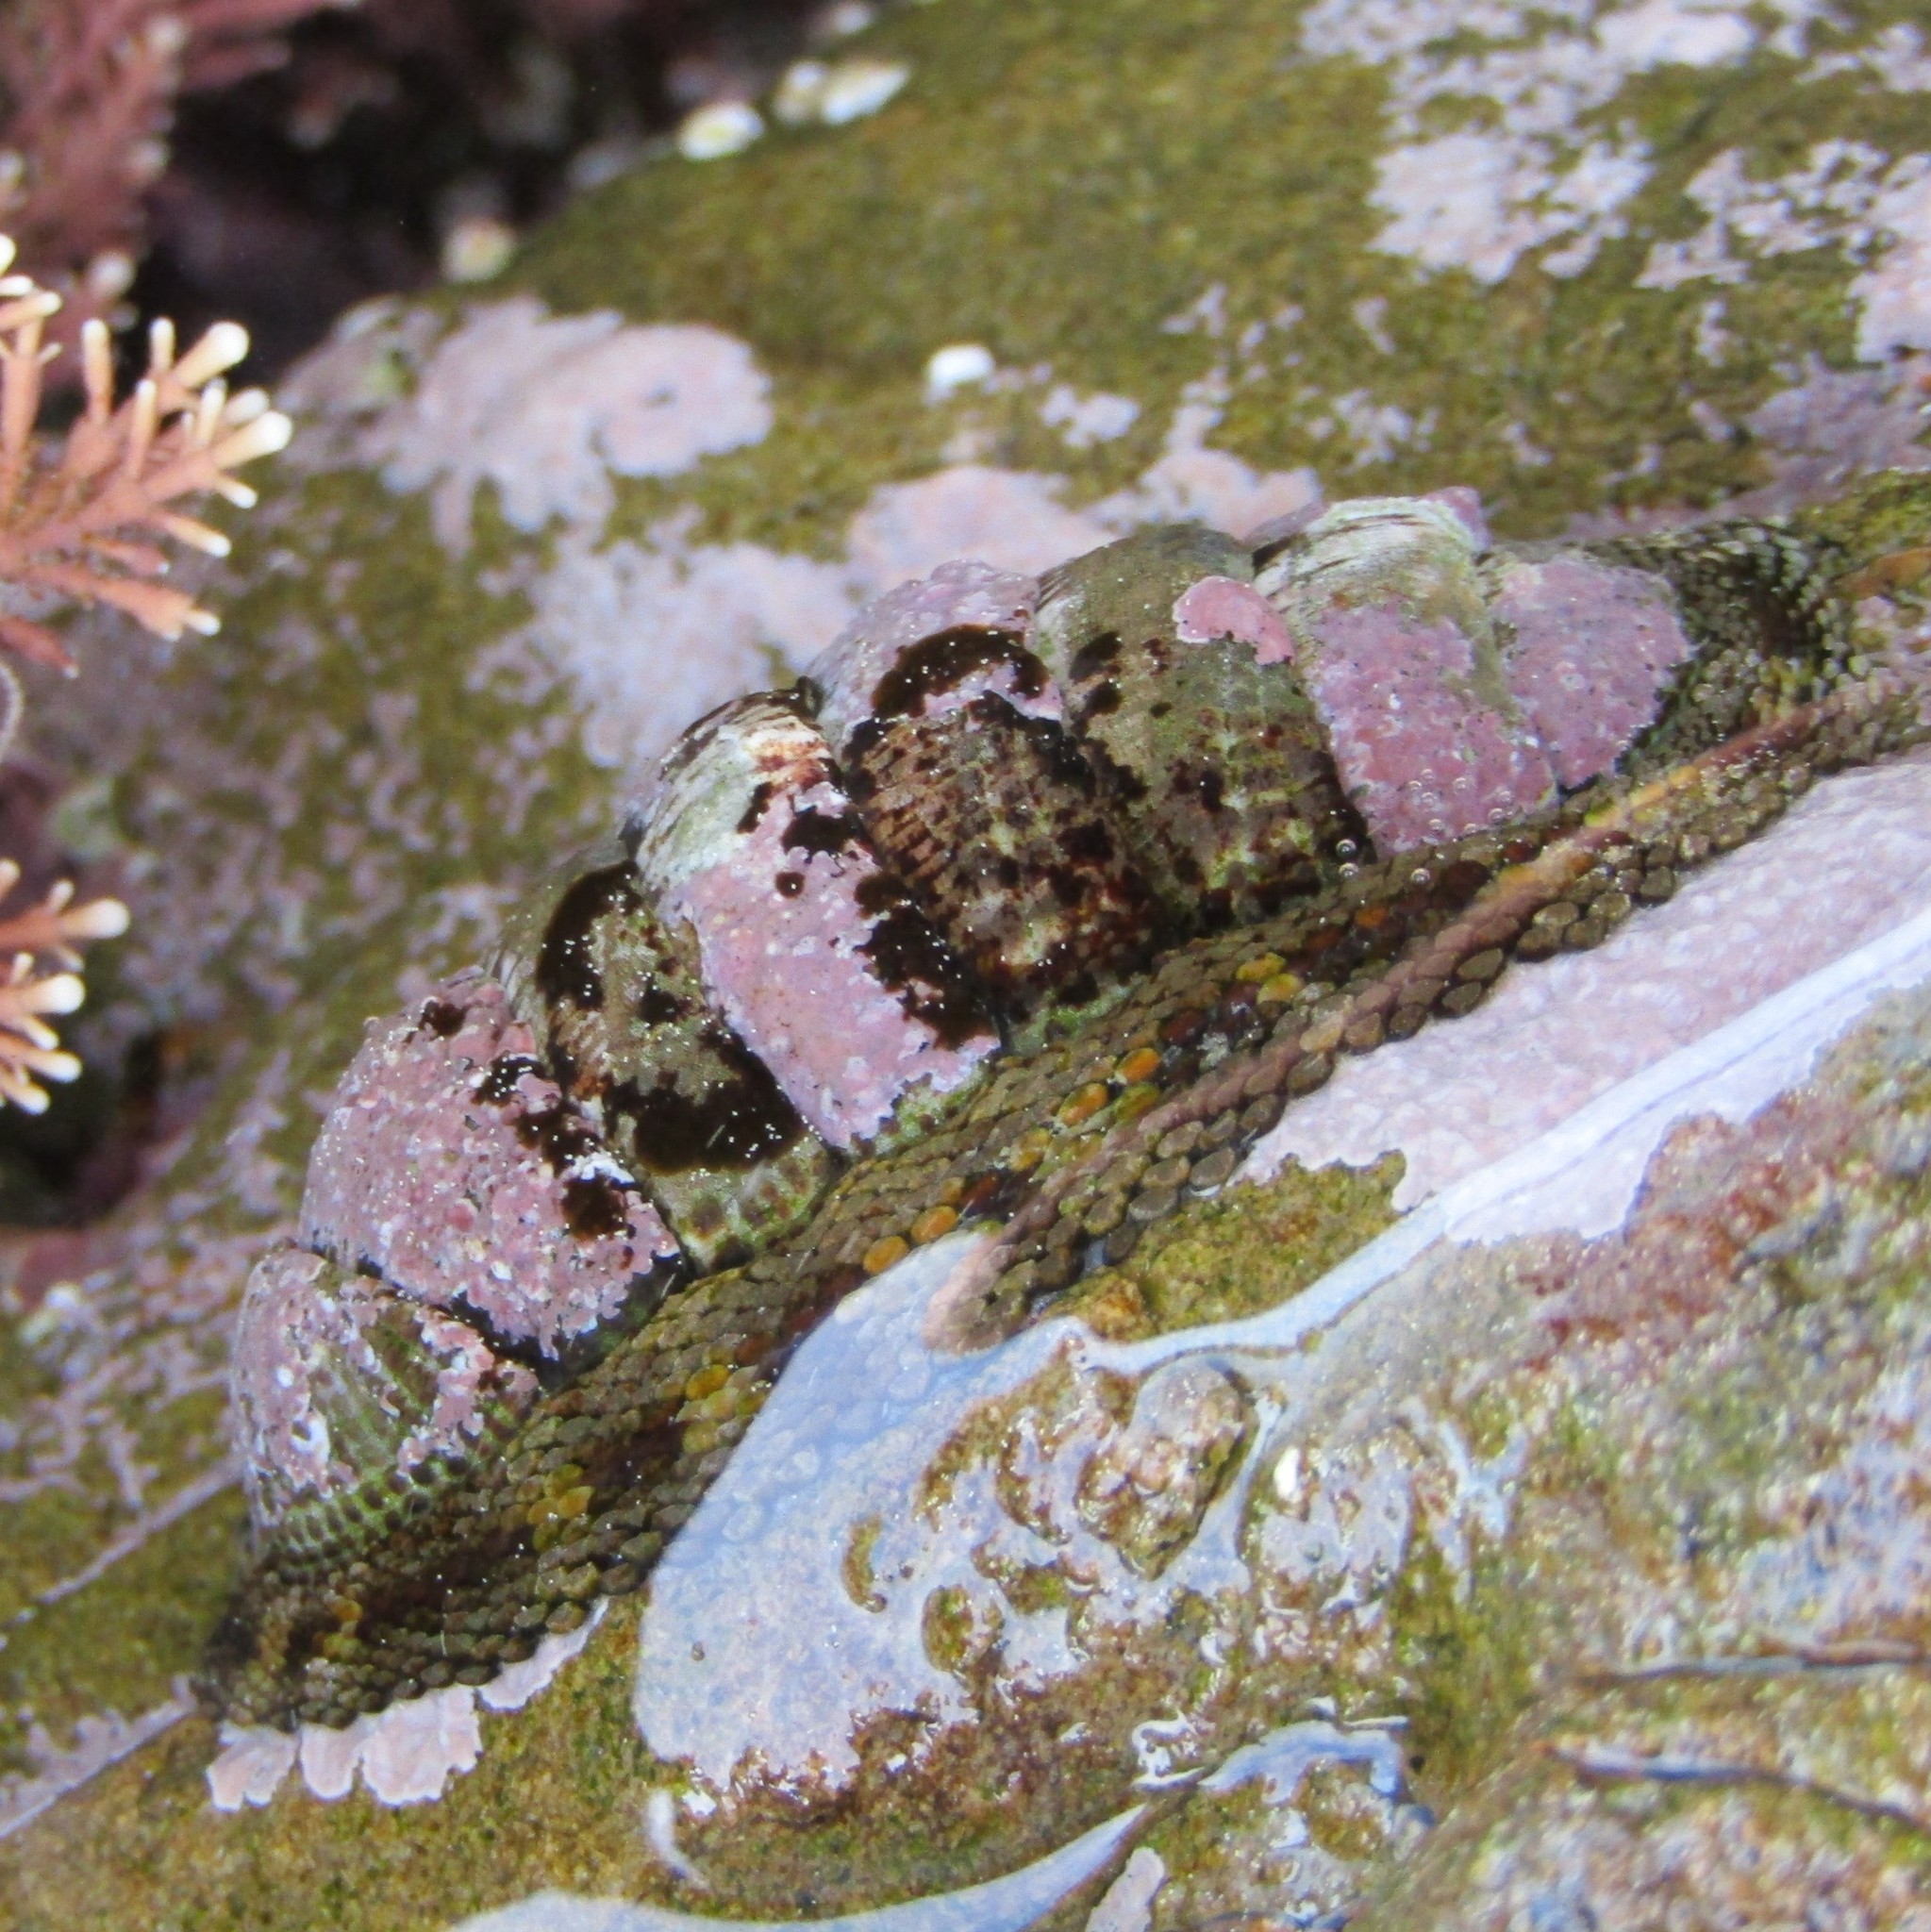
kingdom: Animalia
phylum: Mollusca
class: Polyplacophora
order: Chitonida
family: Chitonidae
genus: Sypharochiton
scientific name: Sypharochiton pelliserpentis
